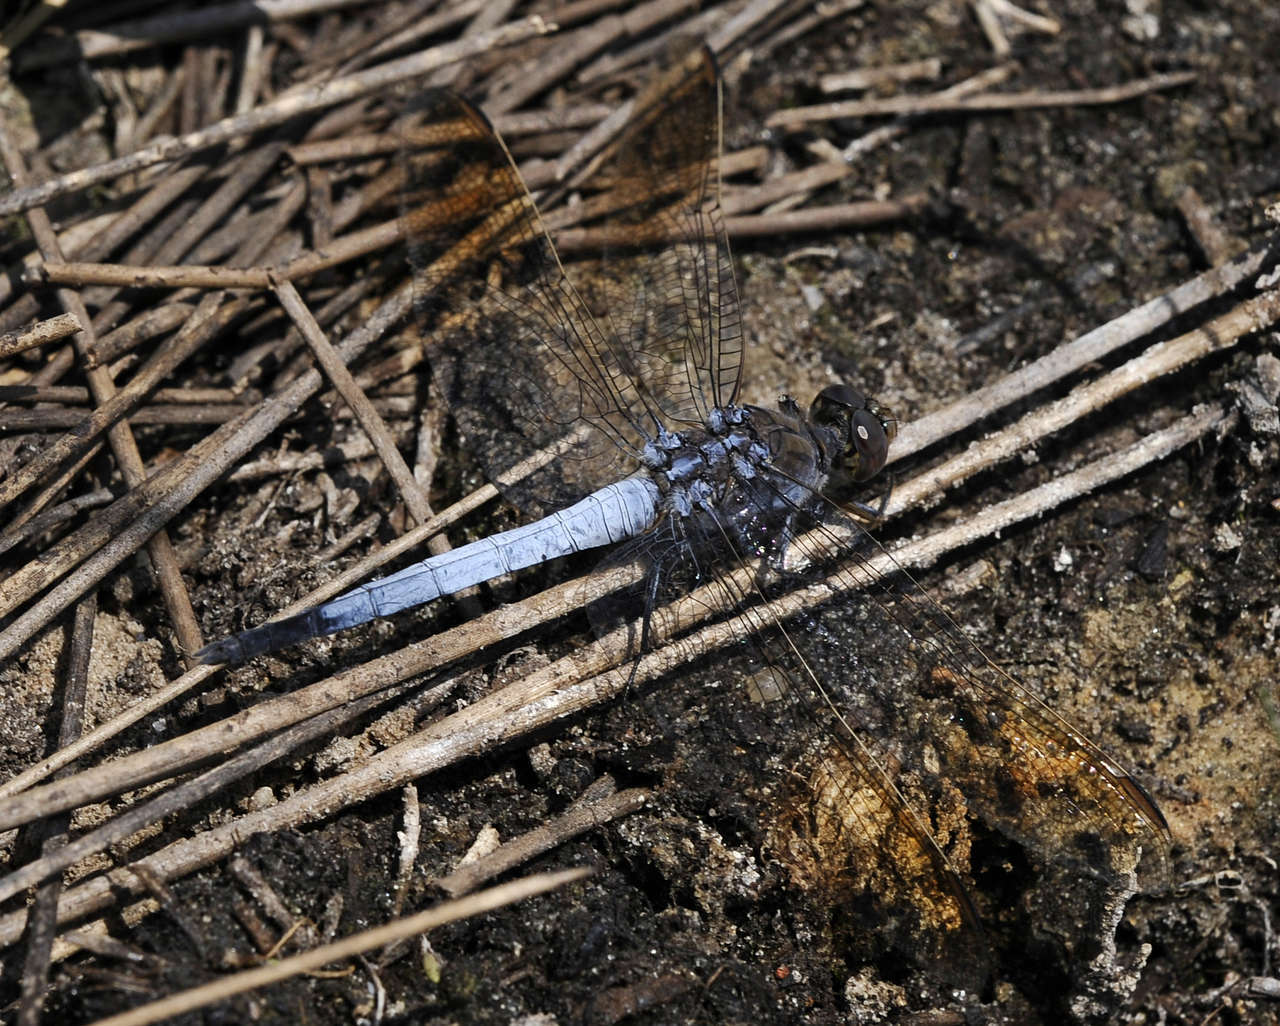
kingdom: Animalia
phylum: Arthropoda
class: Insecta
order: Odonata
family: Libellulidae
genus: Orthetrum
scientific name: Orthetrum caledonicum
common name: Blue skimmer
